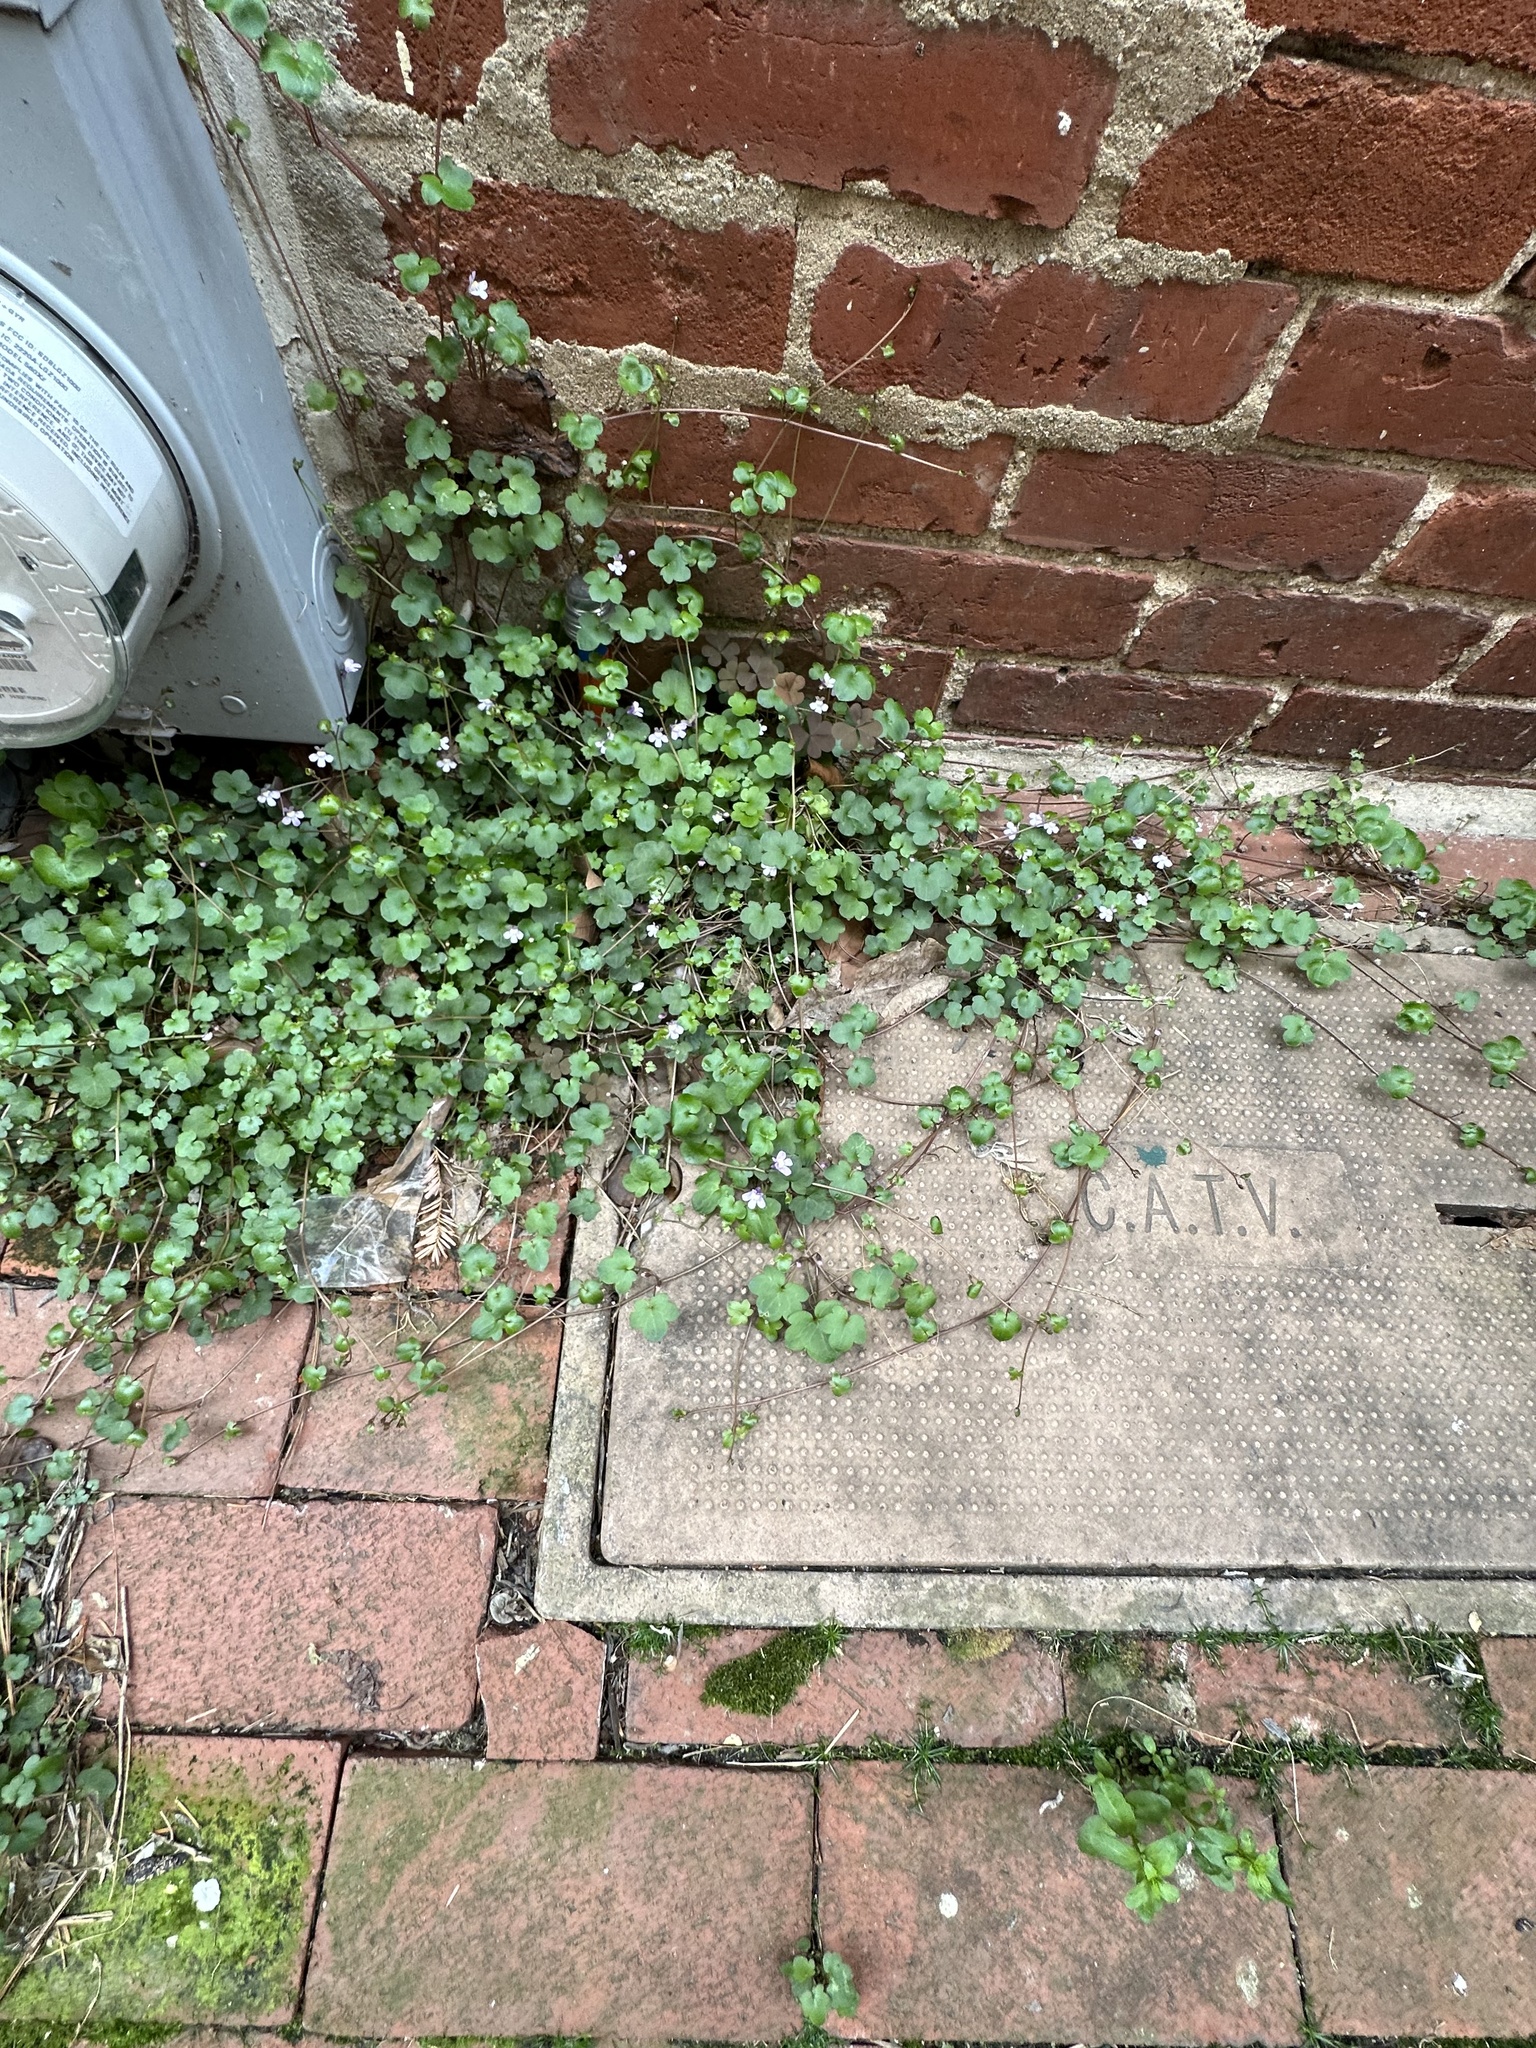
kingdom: Plantae
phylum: Tracheophyta
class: Magnoliopsida
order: Lamiales
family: Plantaginaceae
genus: Cymbalaria
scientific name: Cymbalaria muralis
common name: Ivy-leaved toadflax
